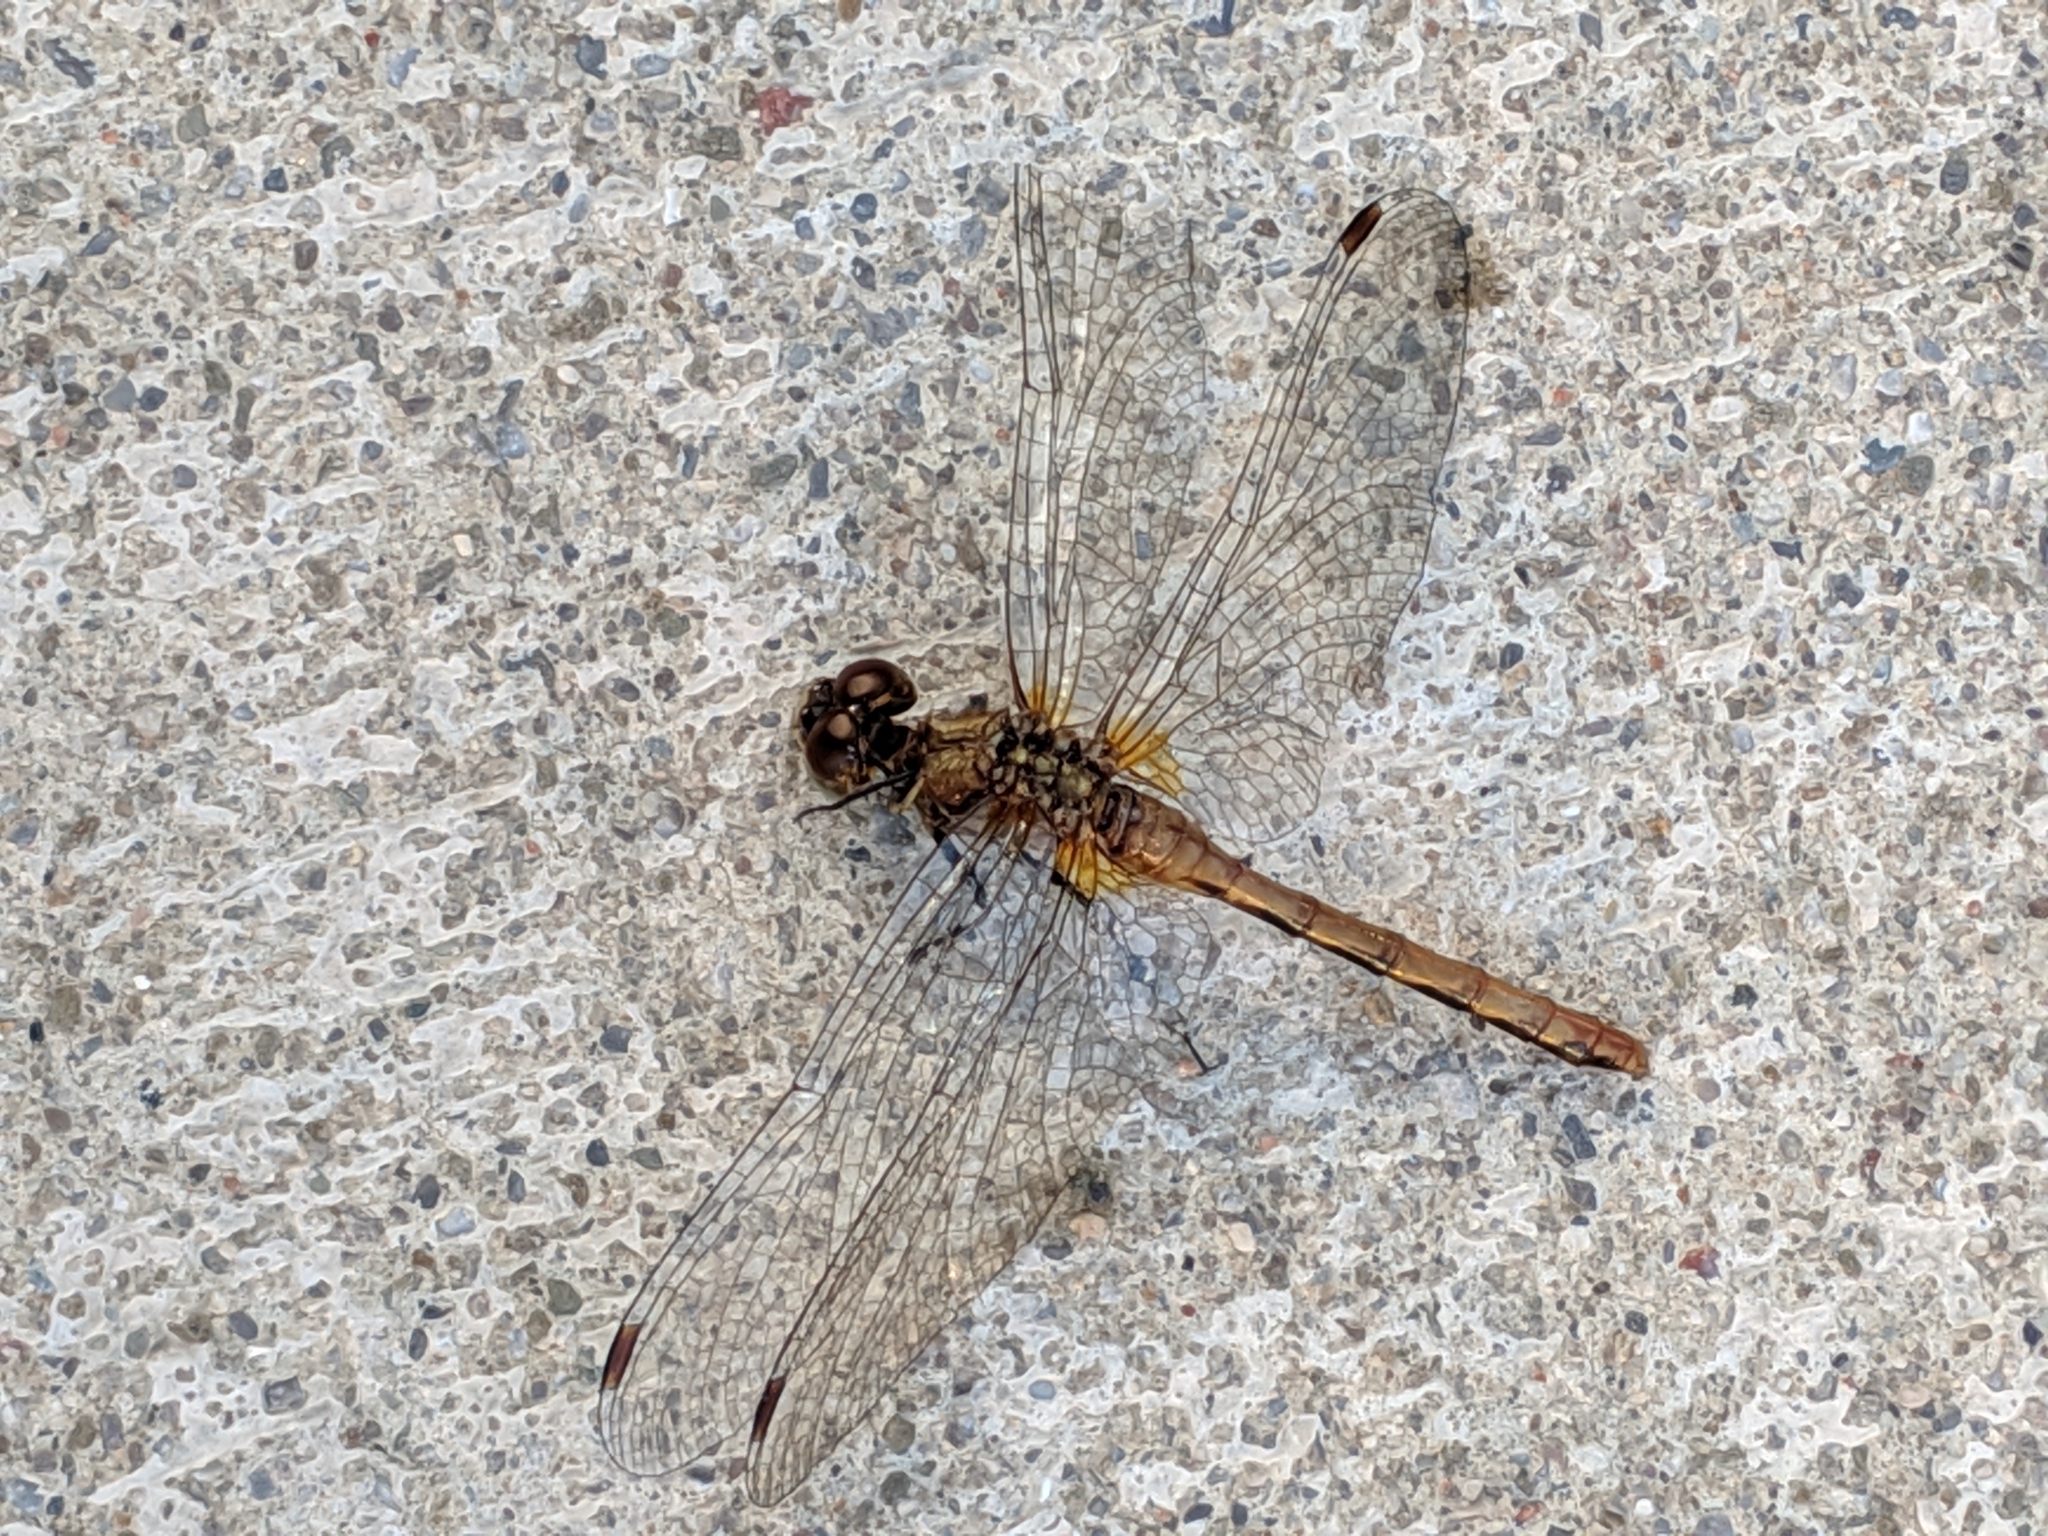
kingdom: Animalia
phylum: Arthropoda
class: Insecta
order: Odonata
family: Libellulidae
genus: Sympetrum
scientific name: Sympetrum
